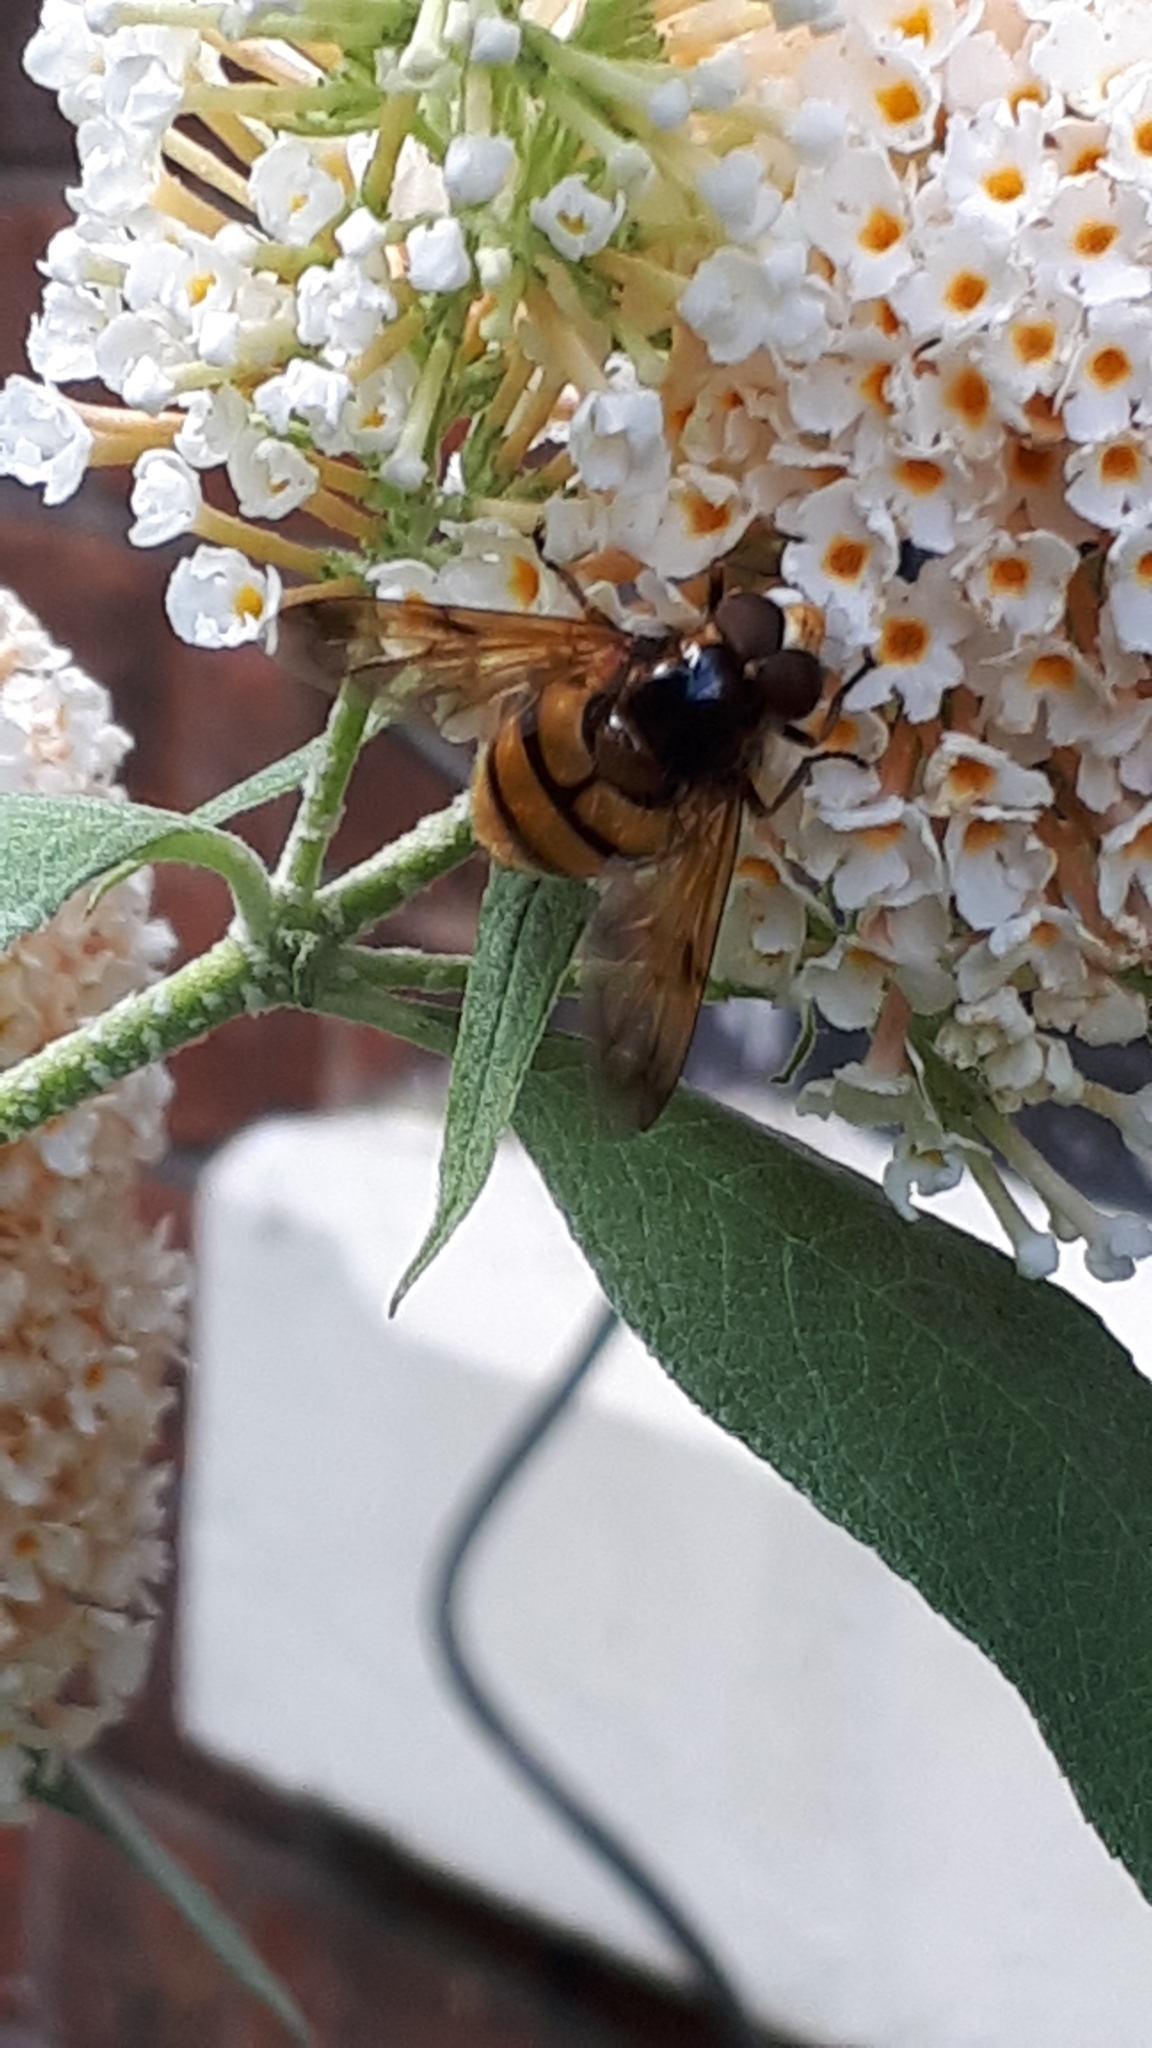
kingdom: Animalia
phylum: Arthropoda
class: Insecta
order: Diptera
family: Syrphidae
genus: Volucella
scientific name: Volucella inanis
